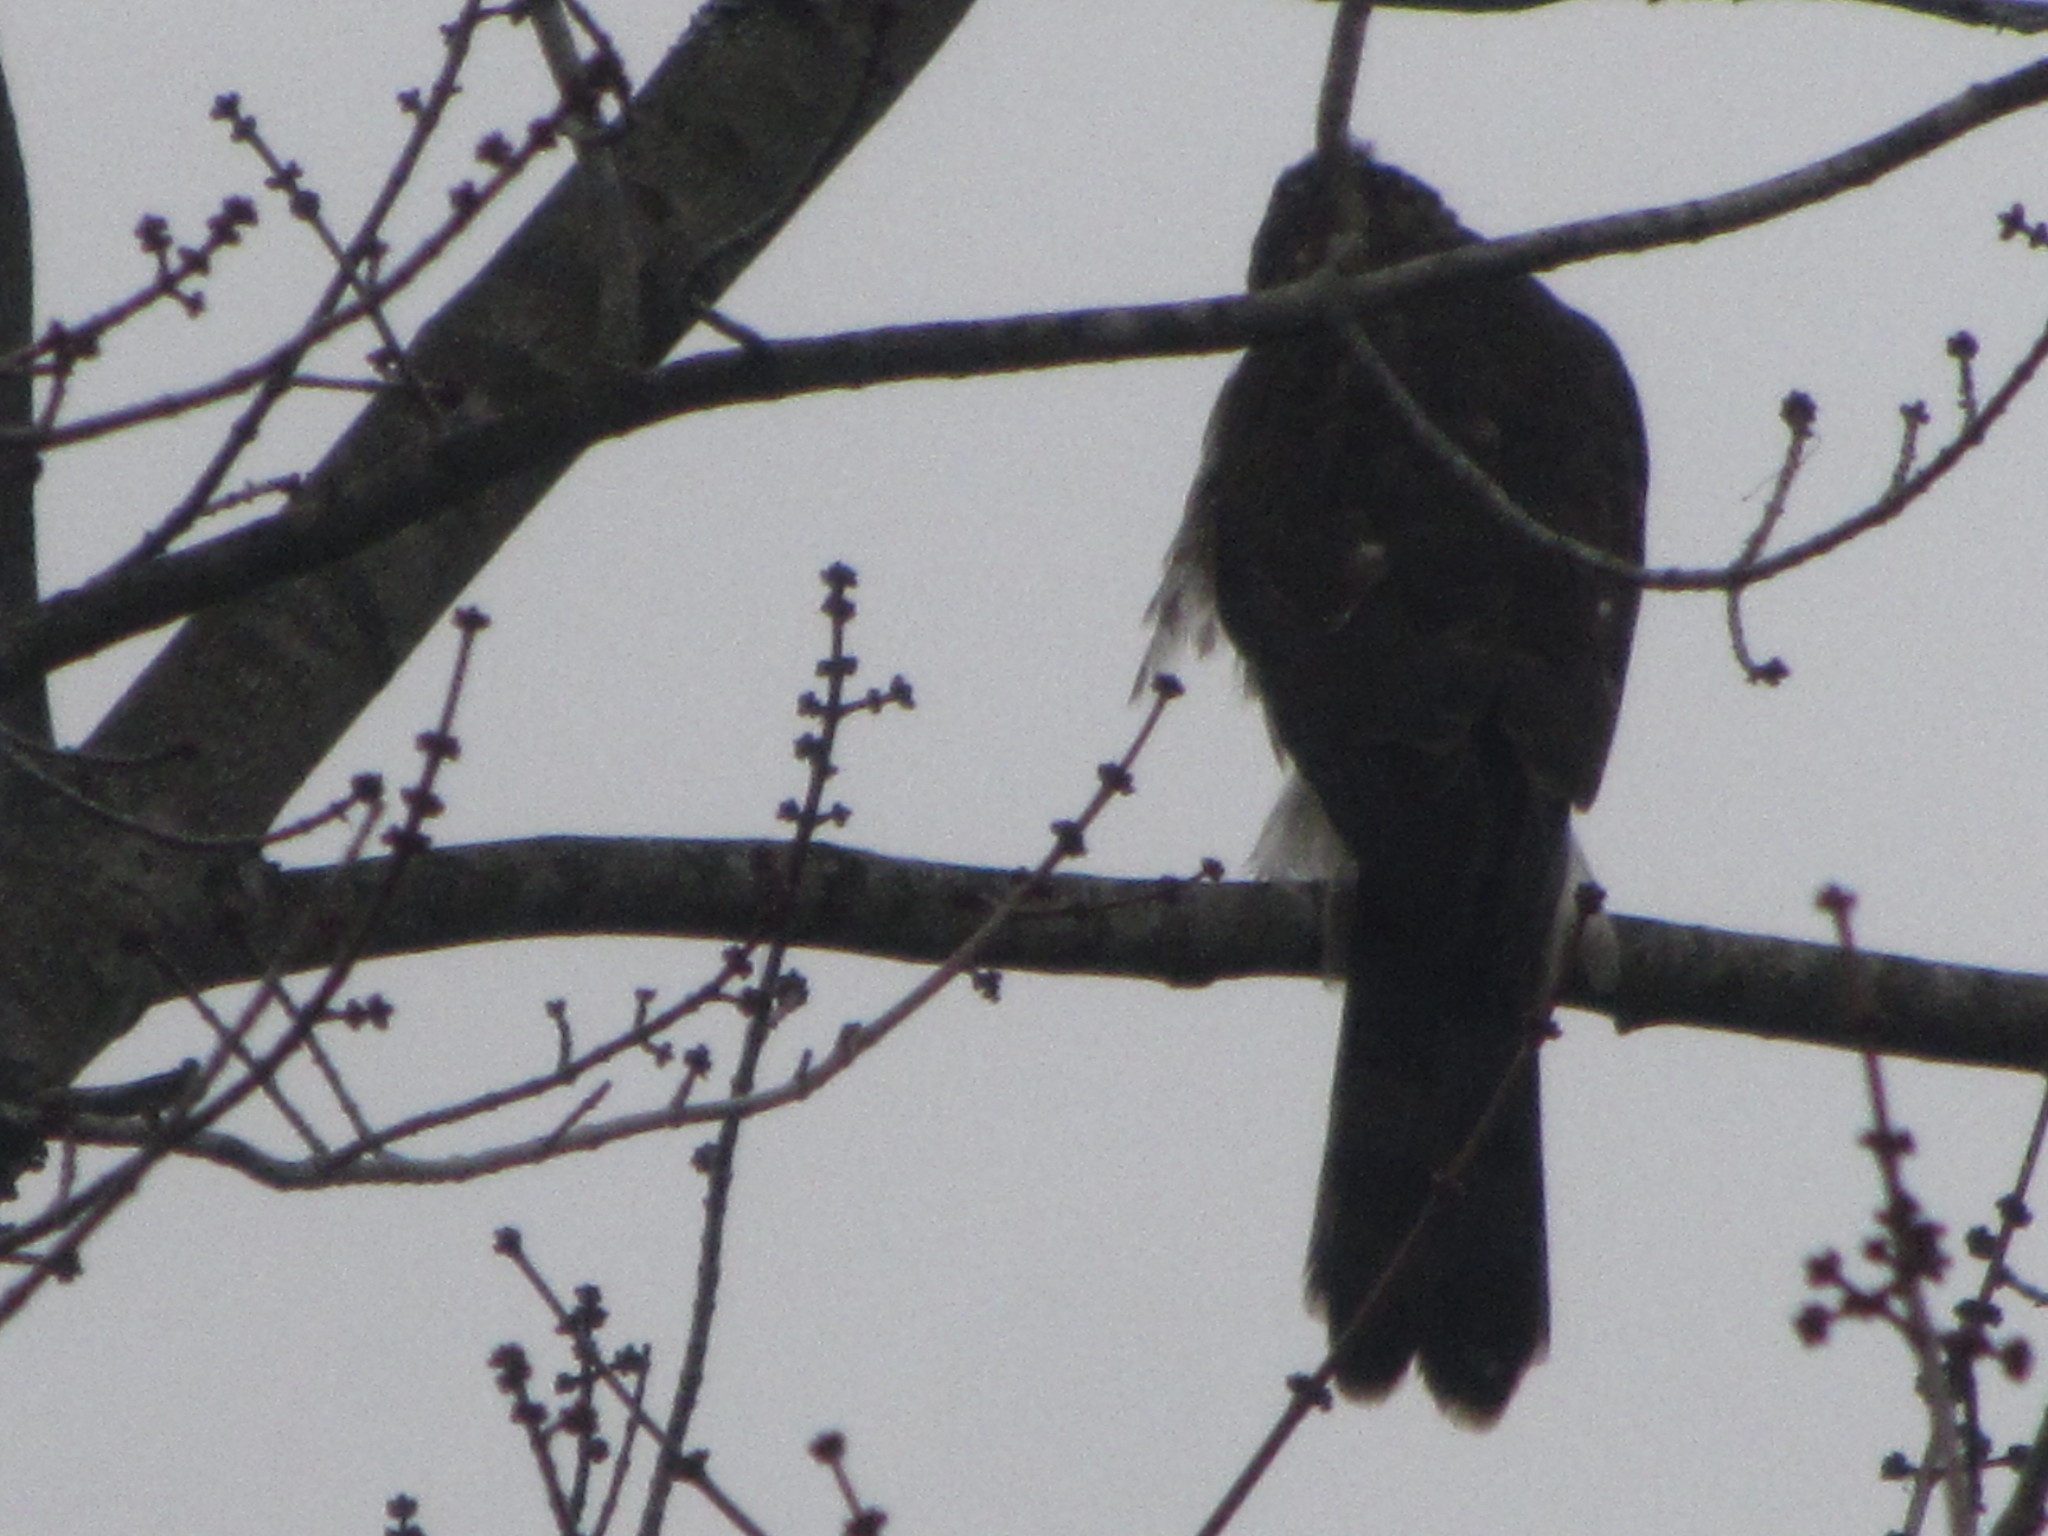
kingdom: Animalia
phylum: Chordata
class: Aves
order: Accipitriformes
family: Accipitridae
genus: Accipiter
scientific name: Accipiter
